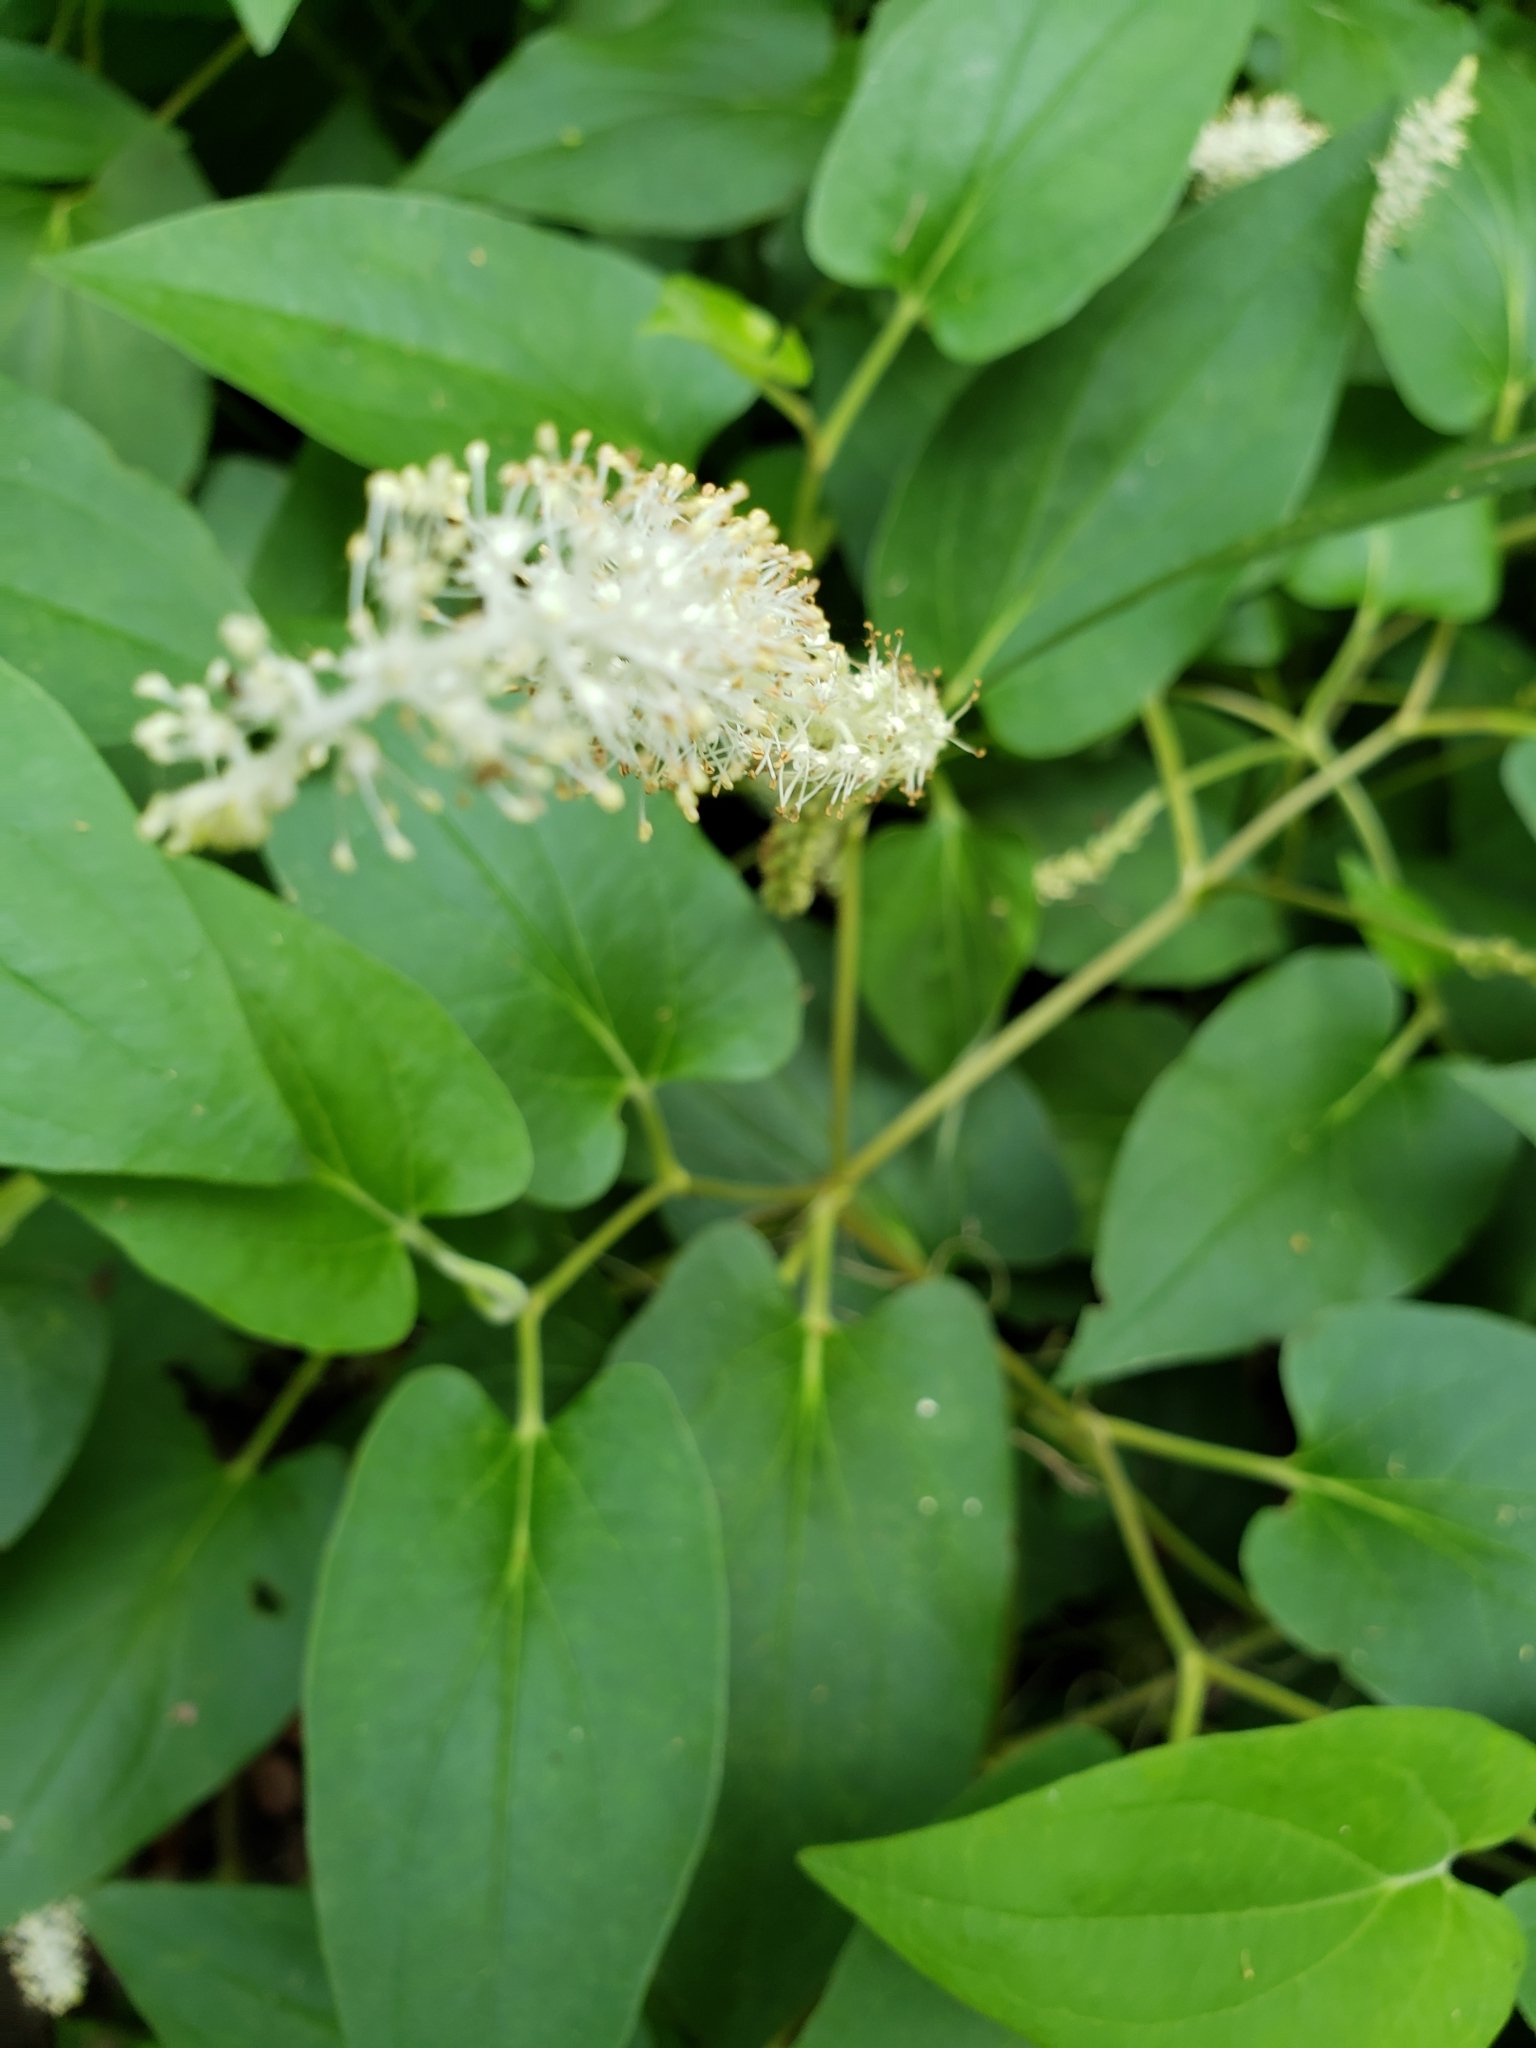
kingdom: Plantae
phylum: Tracheophyta
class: Magnoliopsida
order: Piperales
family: Saururaceae
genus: Saururus
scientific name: Saururus cernuus
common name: Lizard's-tail
